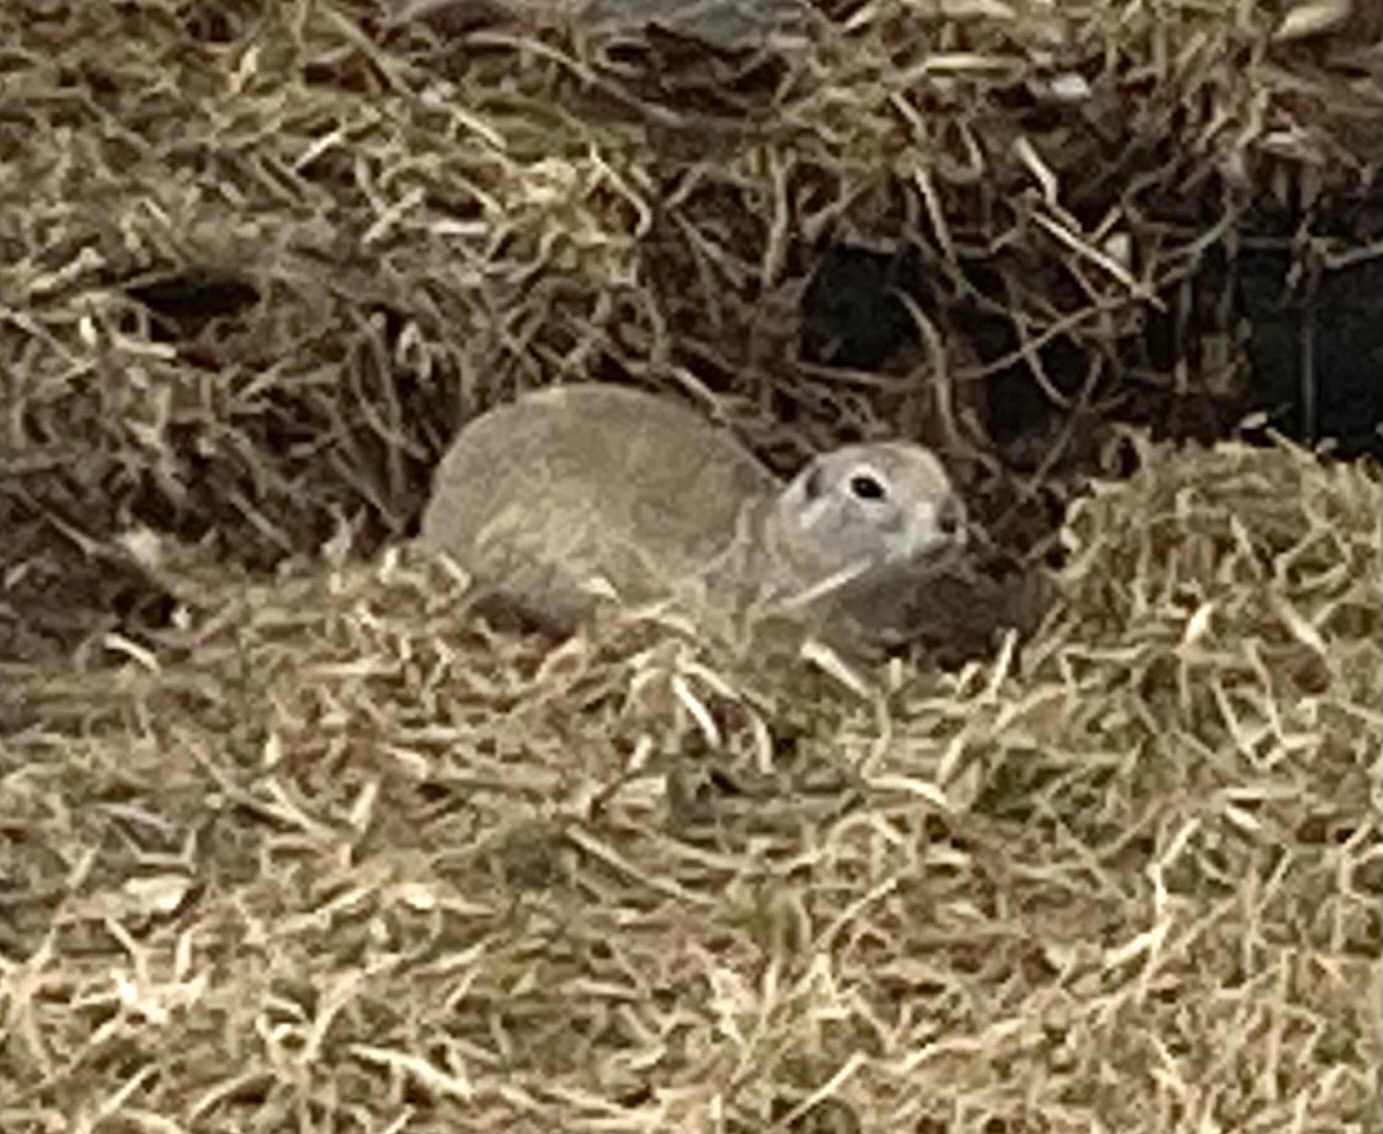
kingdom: Animalia
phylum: Chordata
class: Mammalia
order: Rodentia
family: Sciuridae
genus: Urocitellus
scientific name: Urocitellus richardsonii
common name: Richardson's ground squirrel
